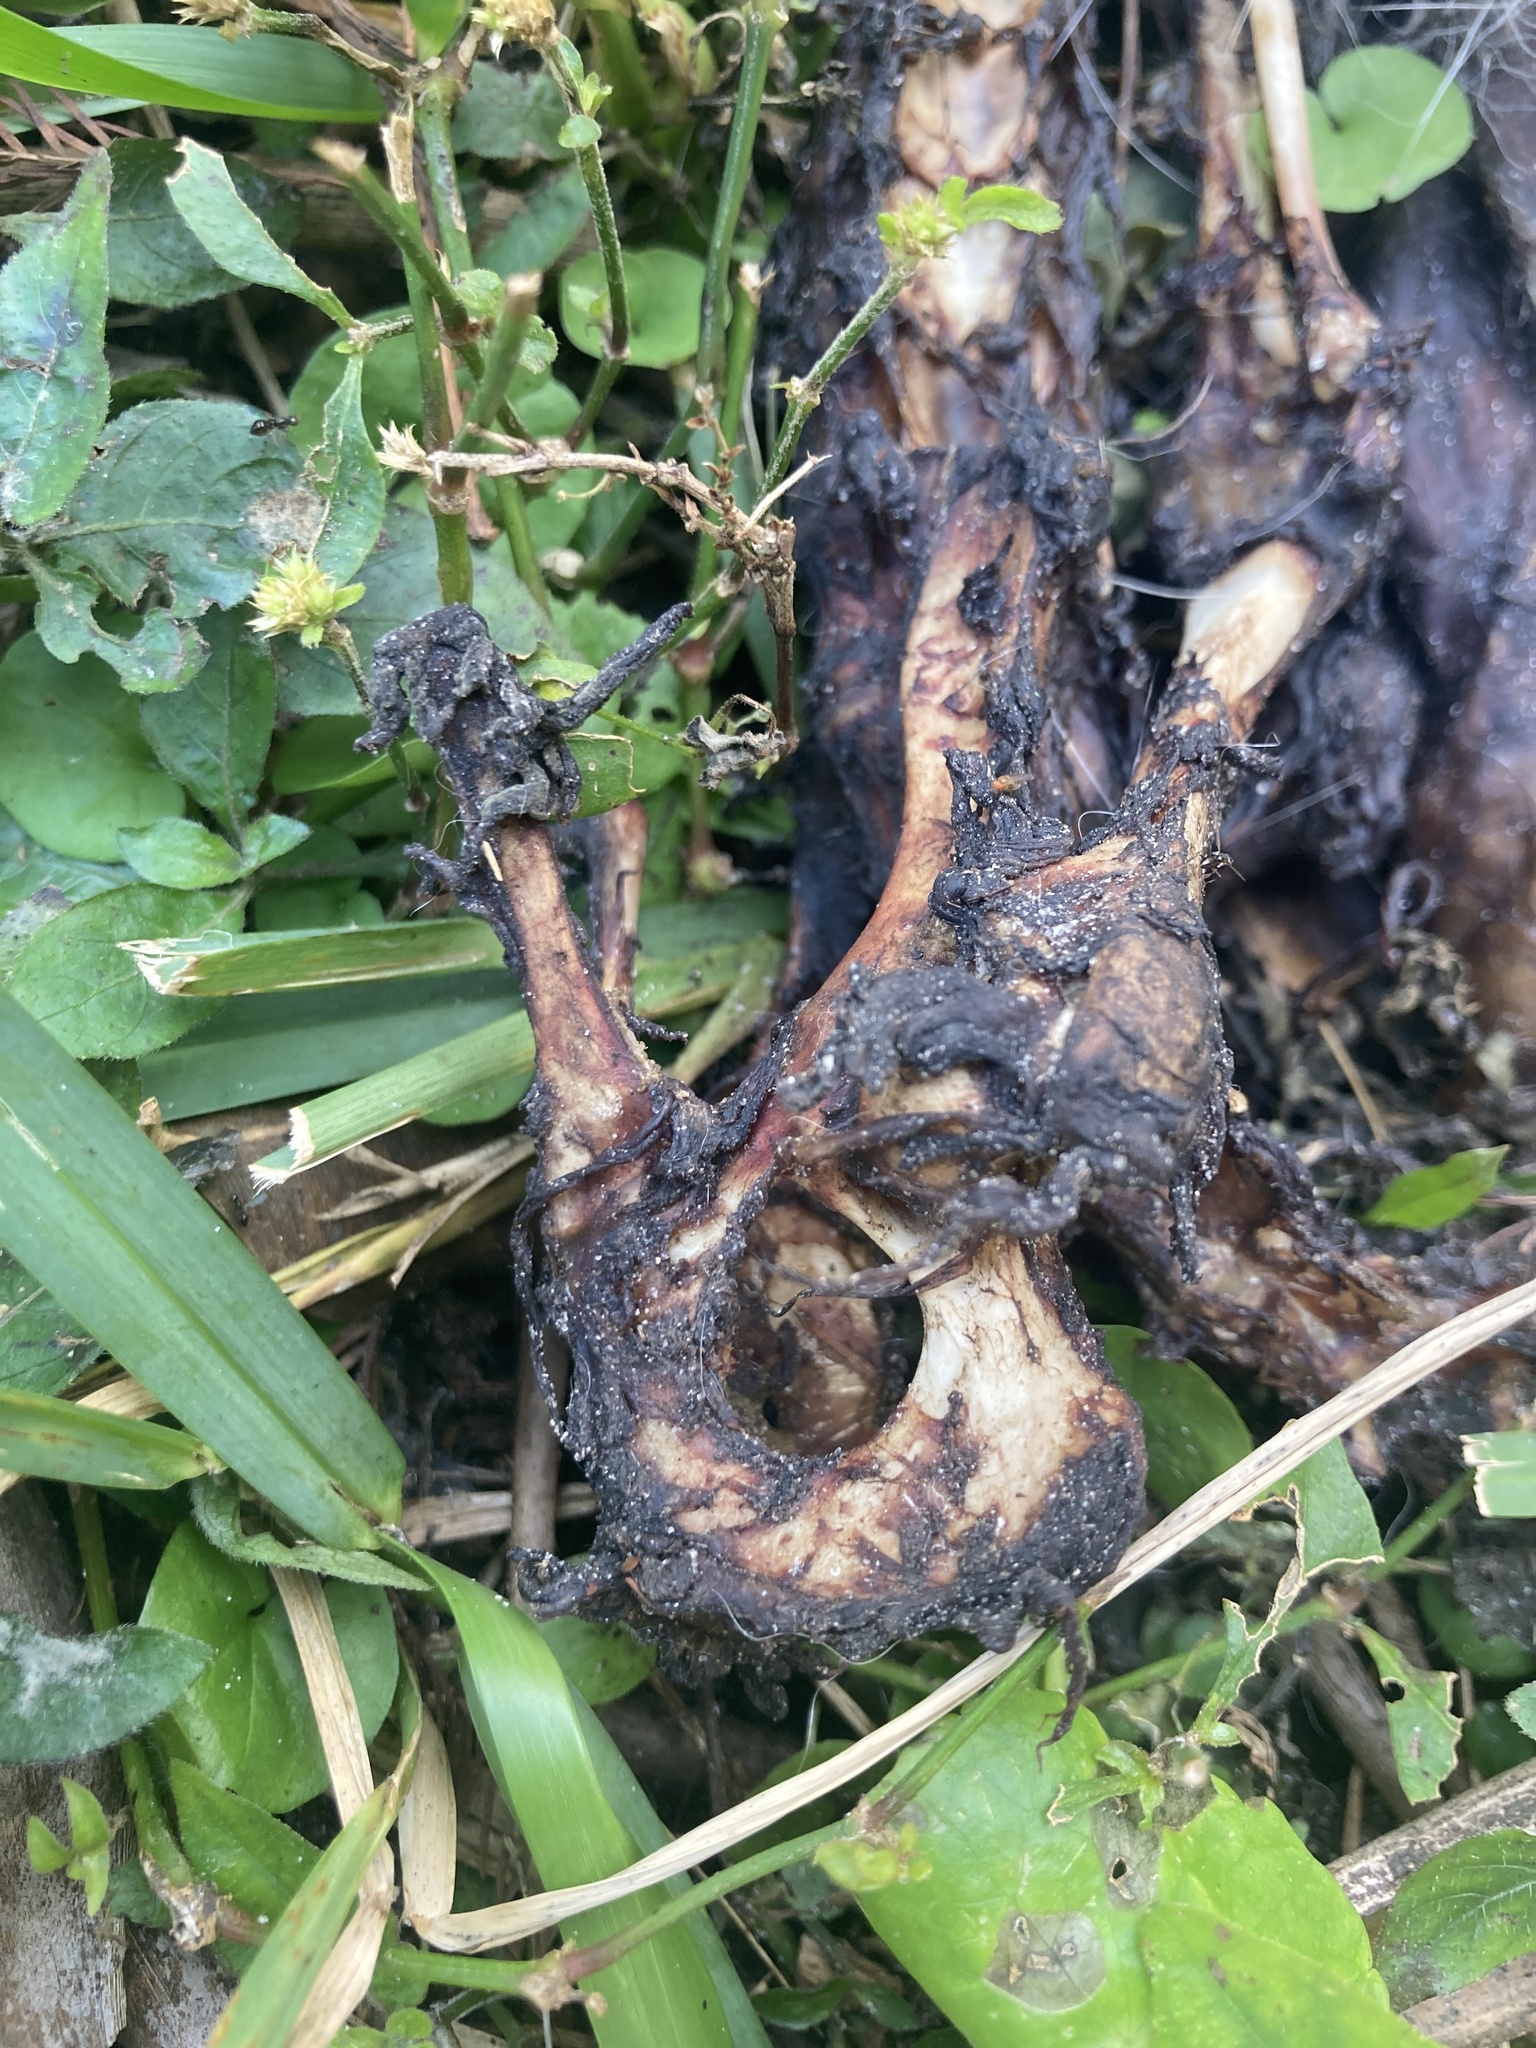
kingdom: Animalia
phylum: Chordata
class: Mammalia
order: Didelphimorphia
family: Didelphidae
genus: Didelphis
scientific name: Didelphis virginiana
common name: Virginia opossum
